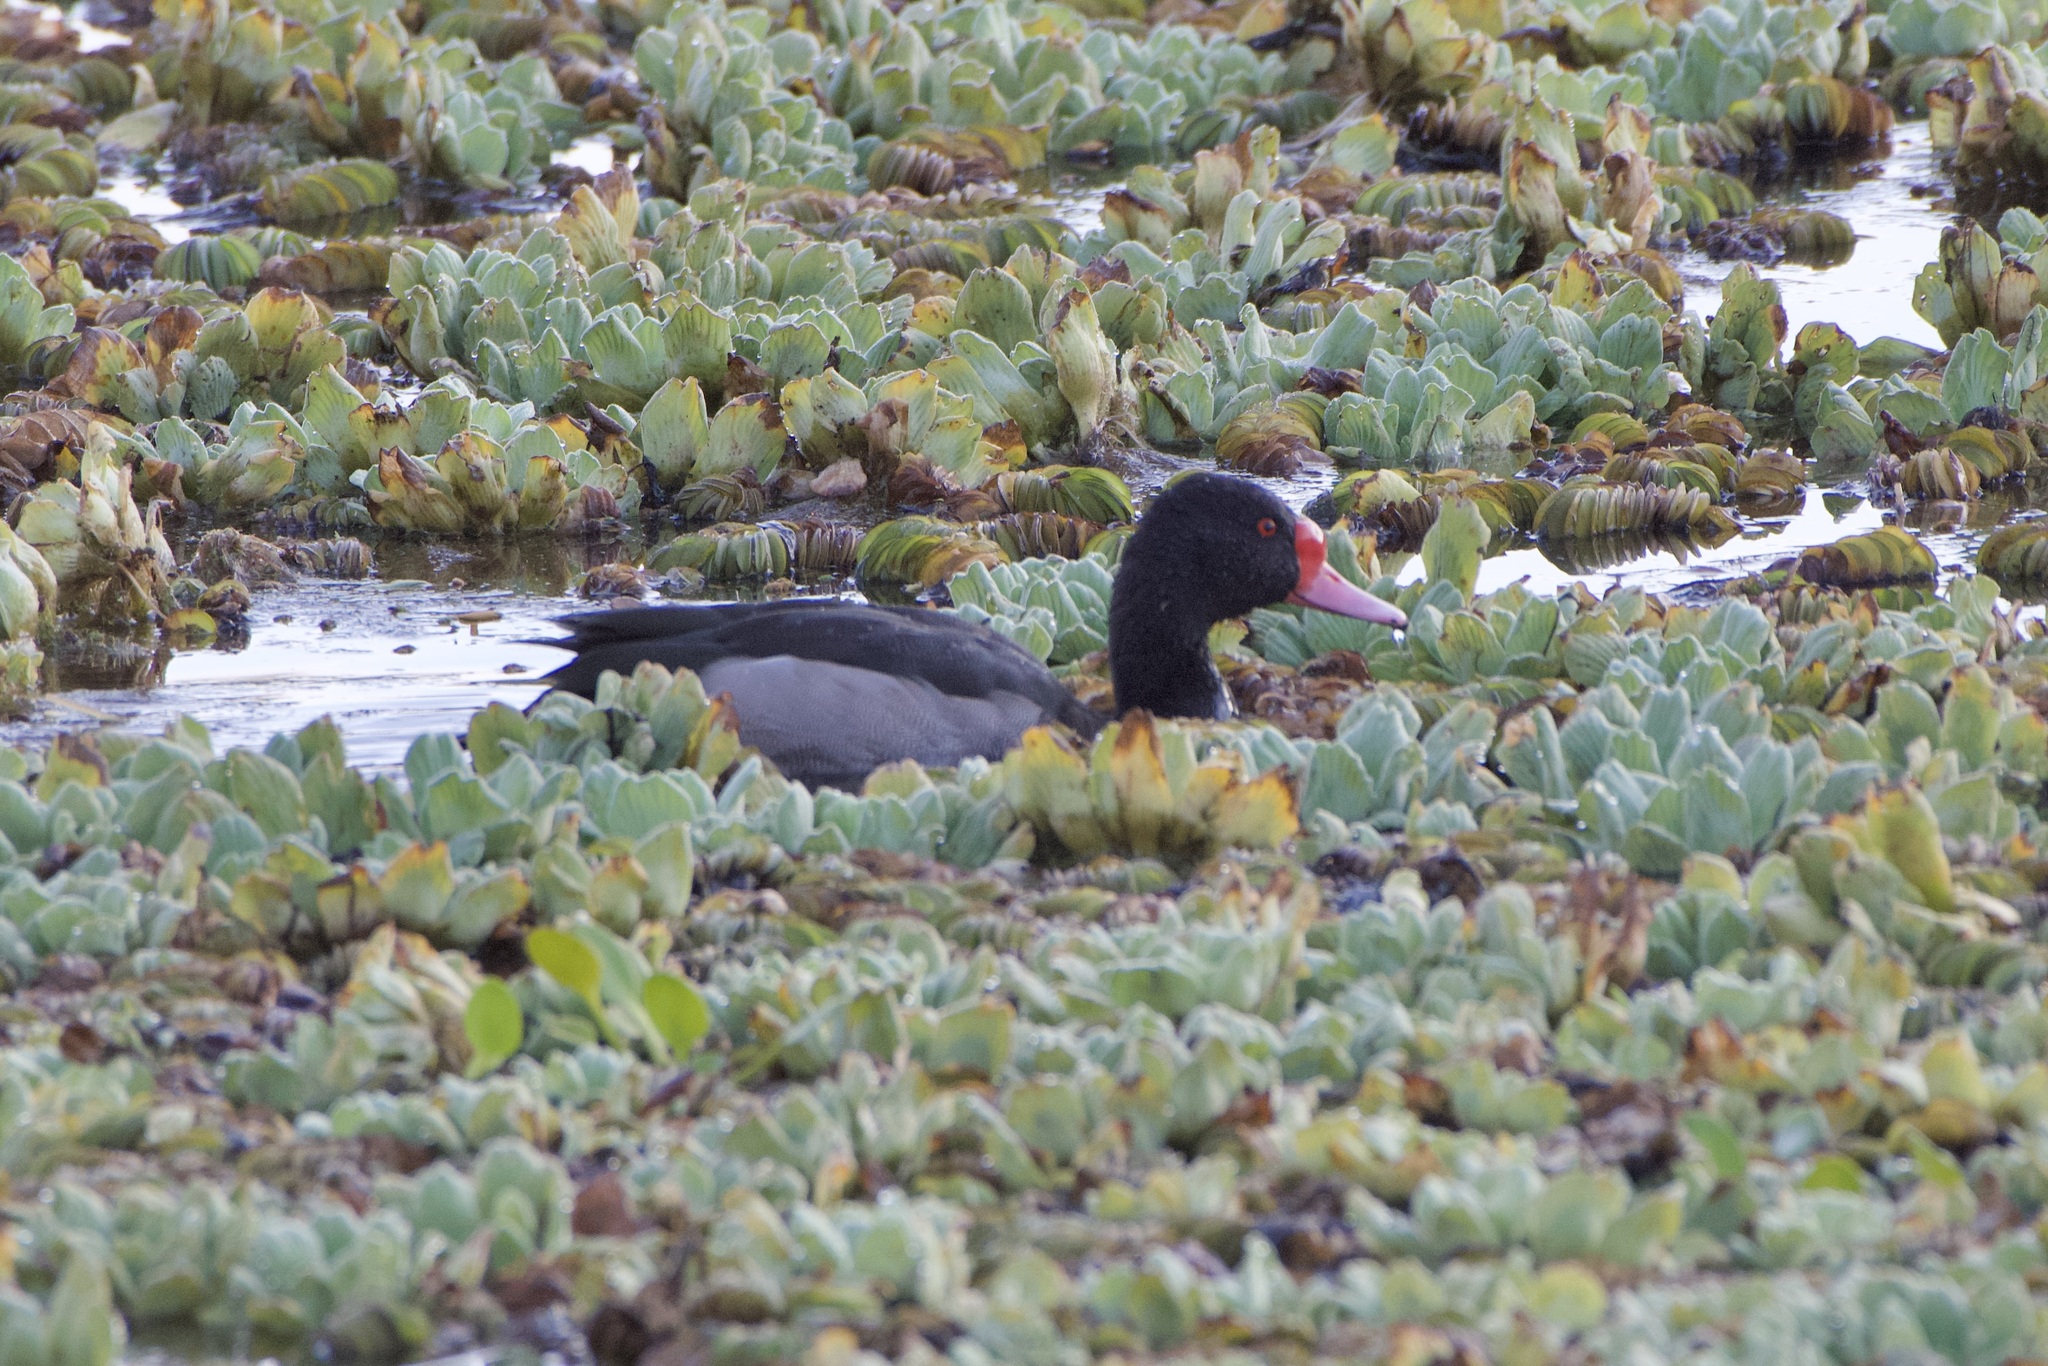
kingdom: Animalia
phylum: Chordata
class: Aves
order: Anseriformes
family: Anatidae
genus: Netta
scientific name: Netta peposaca
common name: Rosy-billed pochard
